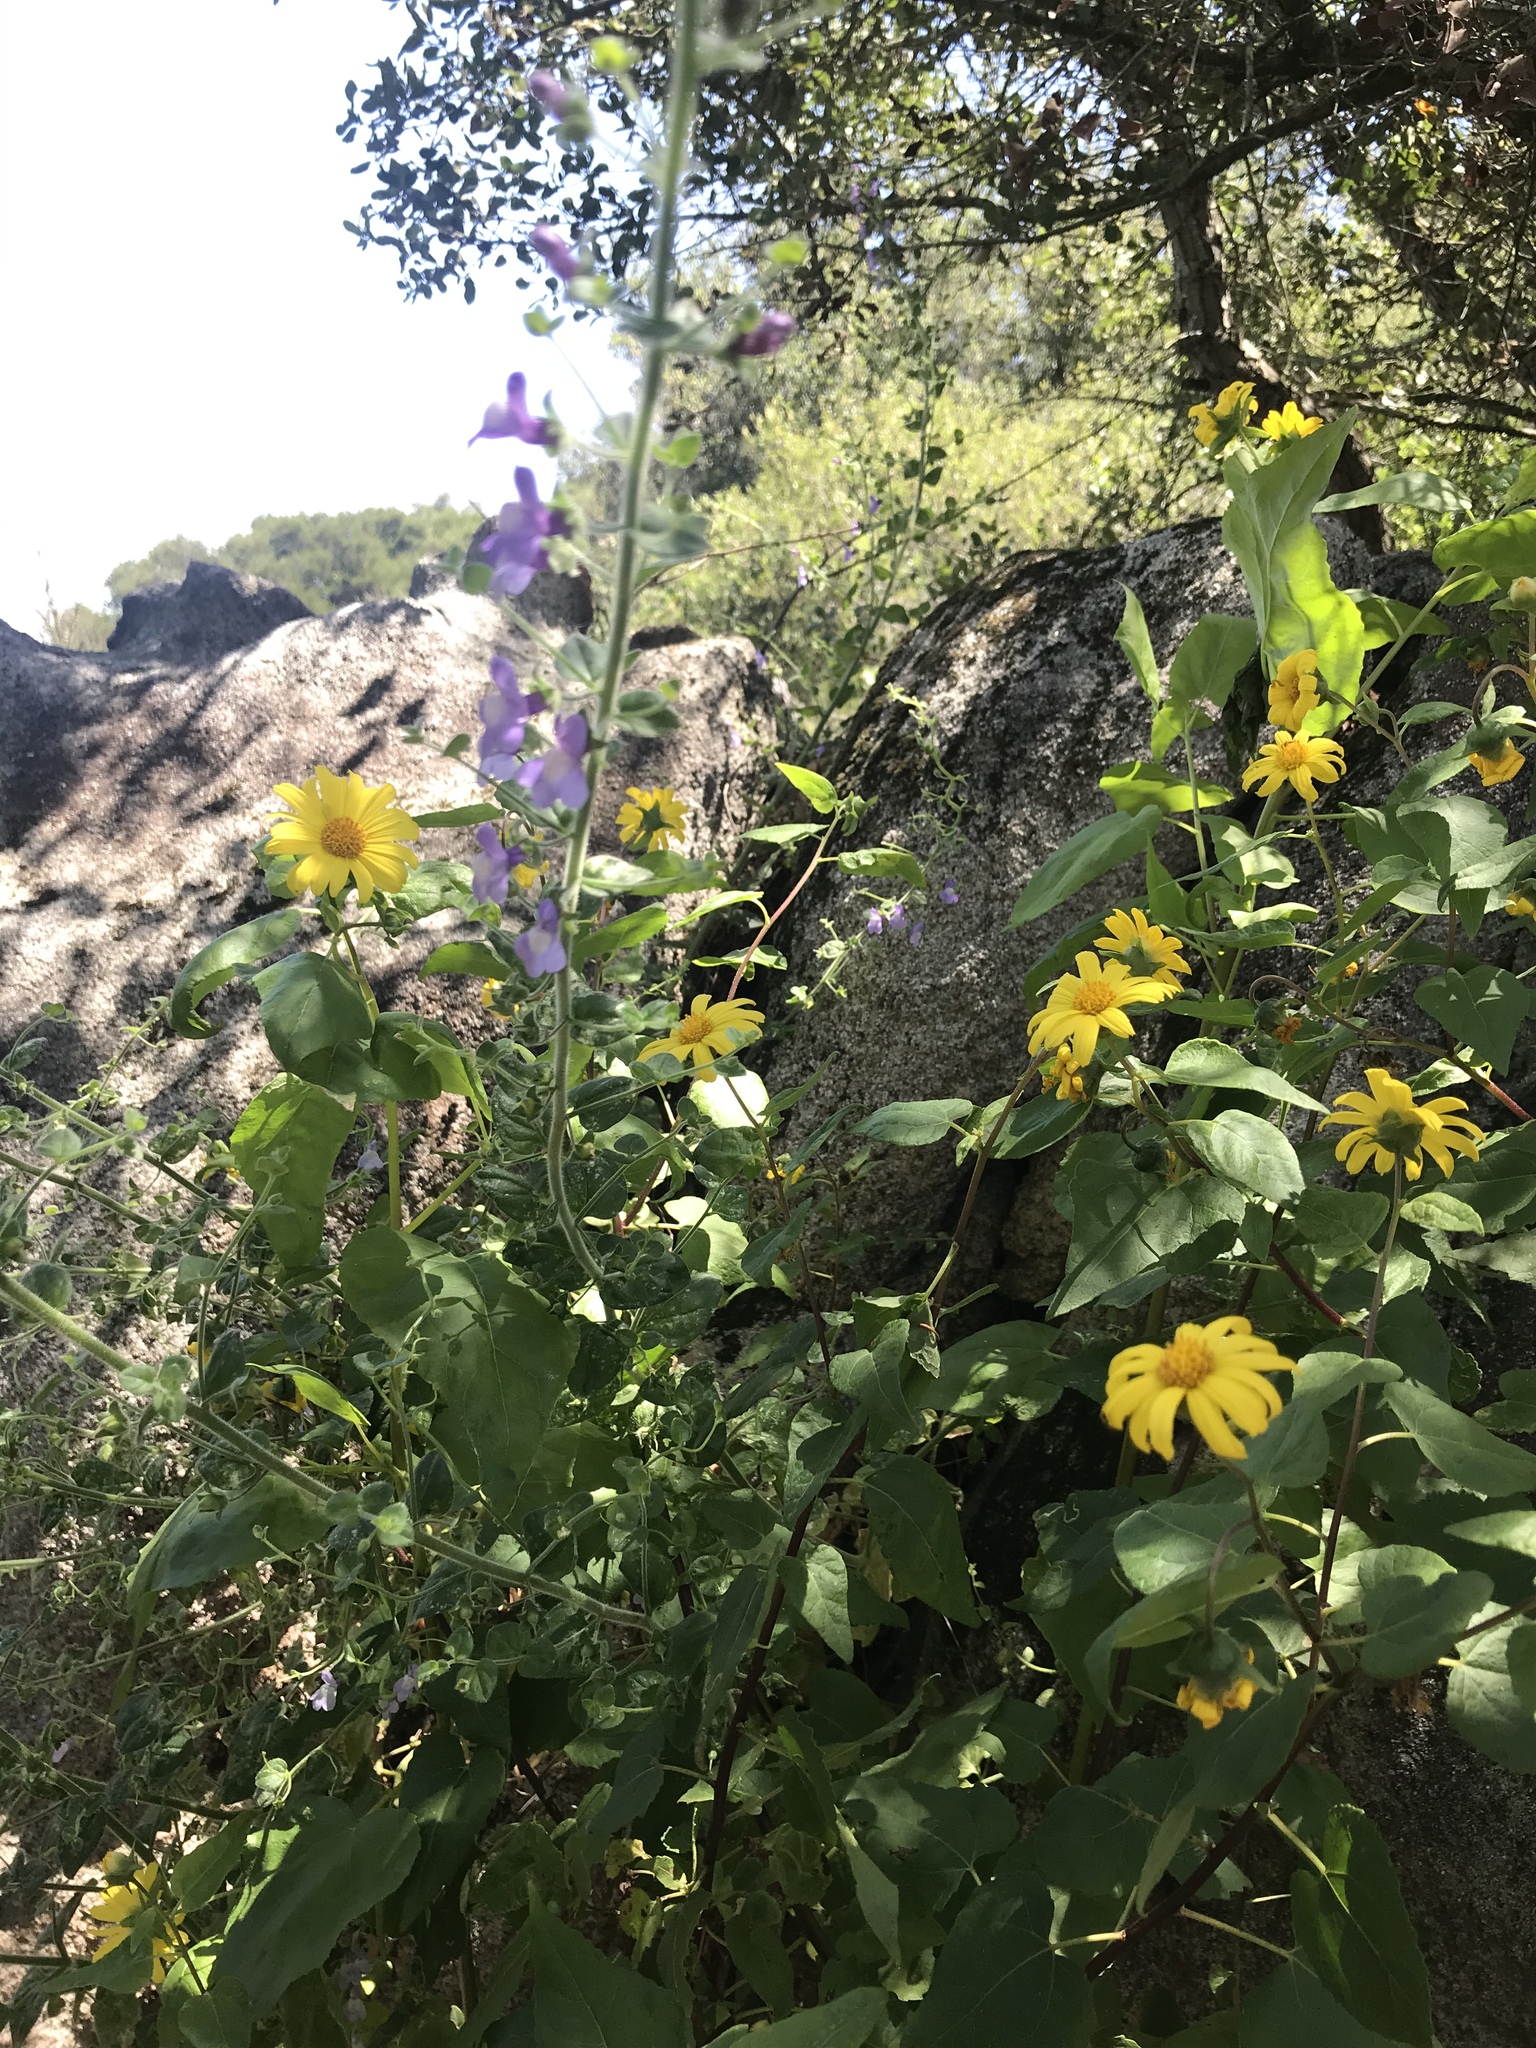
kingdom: Plantae
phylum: Tracheophyta
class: Magnoliopsida
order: Asterales
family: Asteraceae
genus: Venegasia
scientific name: Venegasia carpesioides
